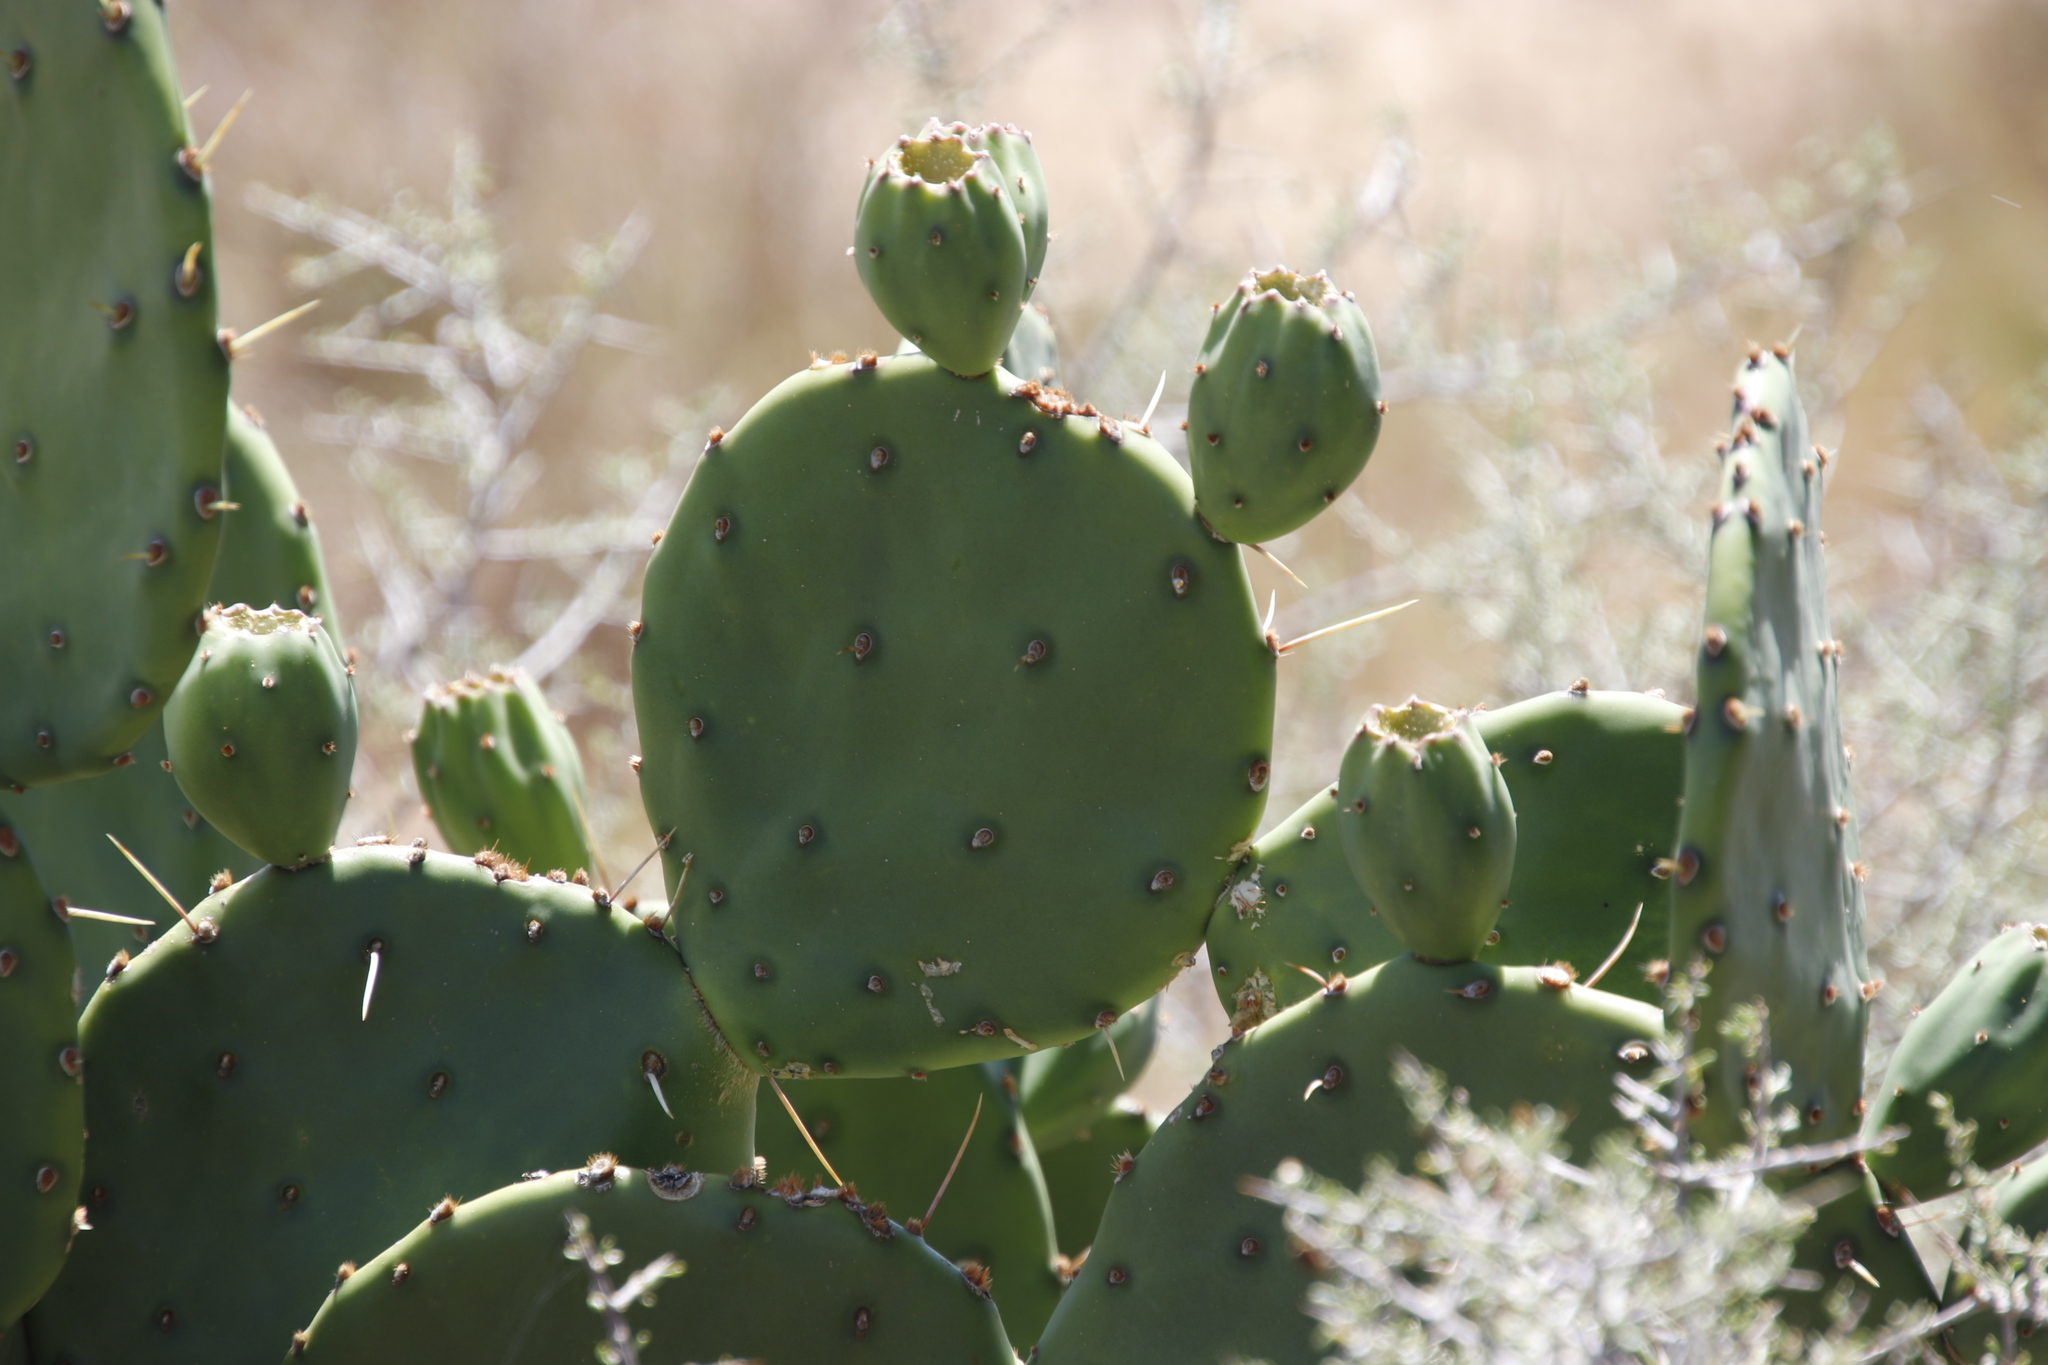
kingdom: Plantae
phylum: Tracheophyta
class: Magnoliopsida
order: Caryophyllales
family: Cactaceae
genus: Opuntia
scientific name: Opuntia megapotamica
